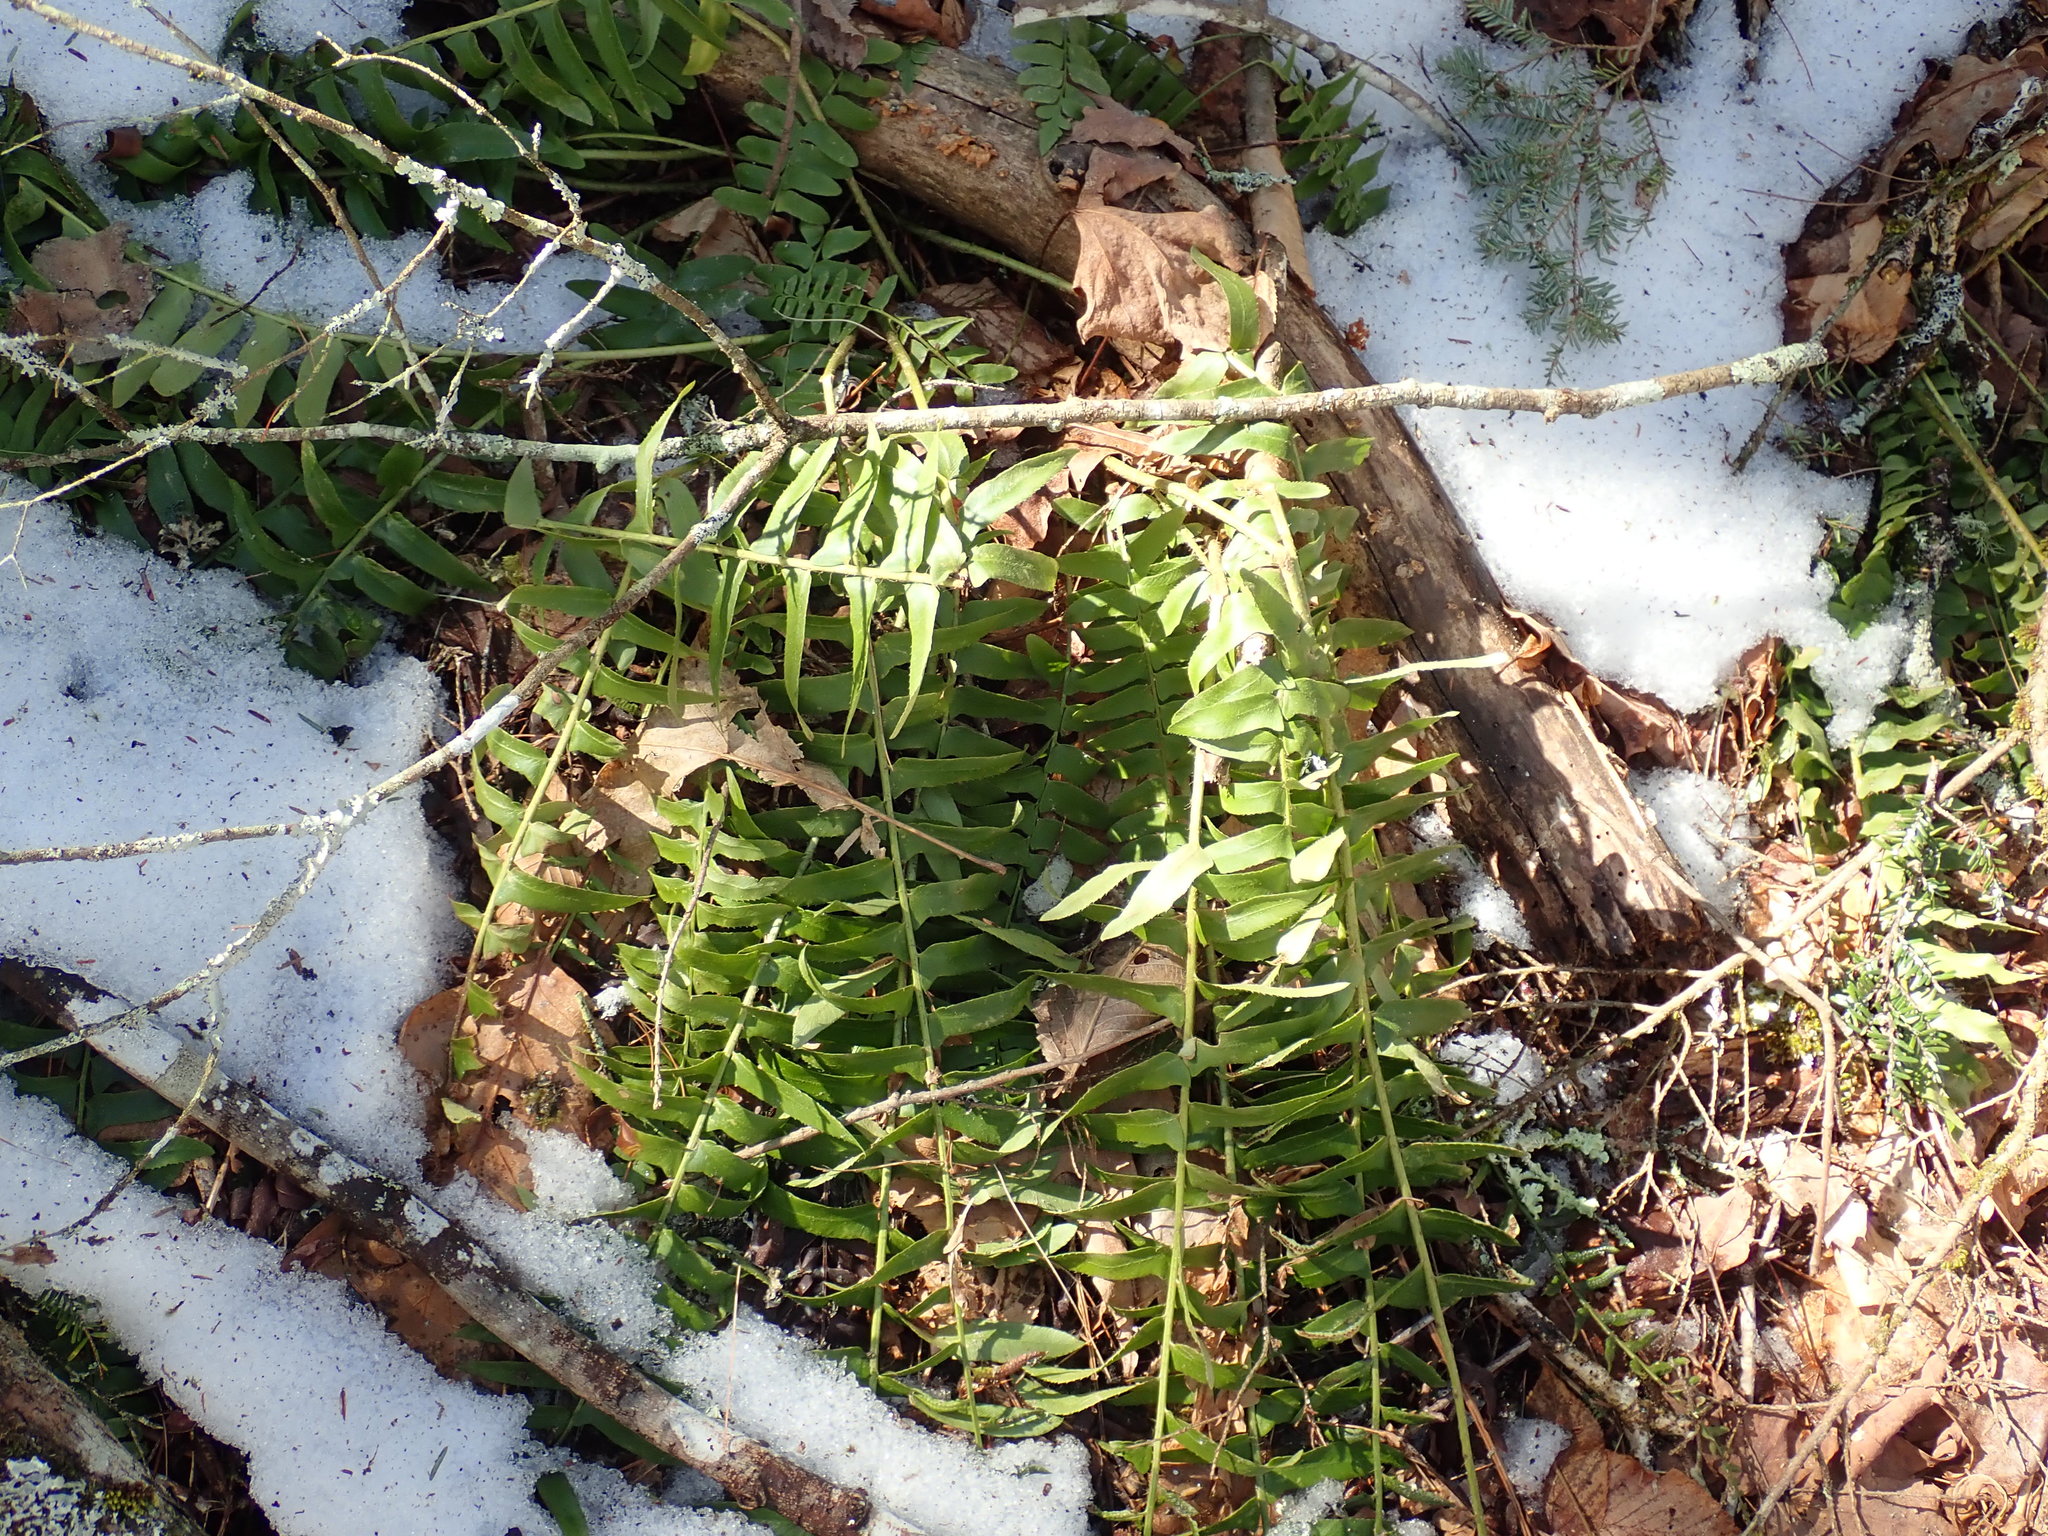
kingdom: Plantae
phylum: Tracheophyta
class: Polypodiopsida
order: Polypodiales
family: Dryopteridaceae
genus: Polystichum
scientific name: Polystichum acrostichoides
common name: Christmas fern
